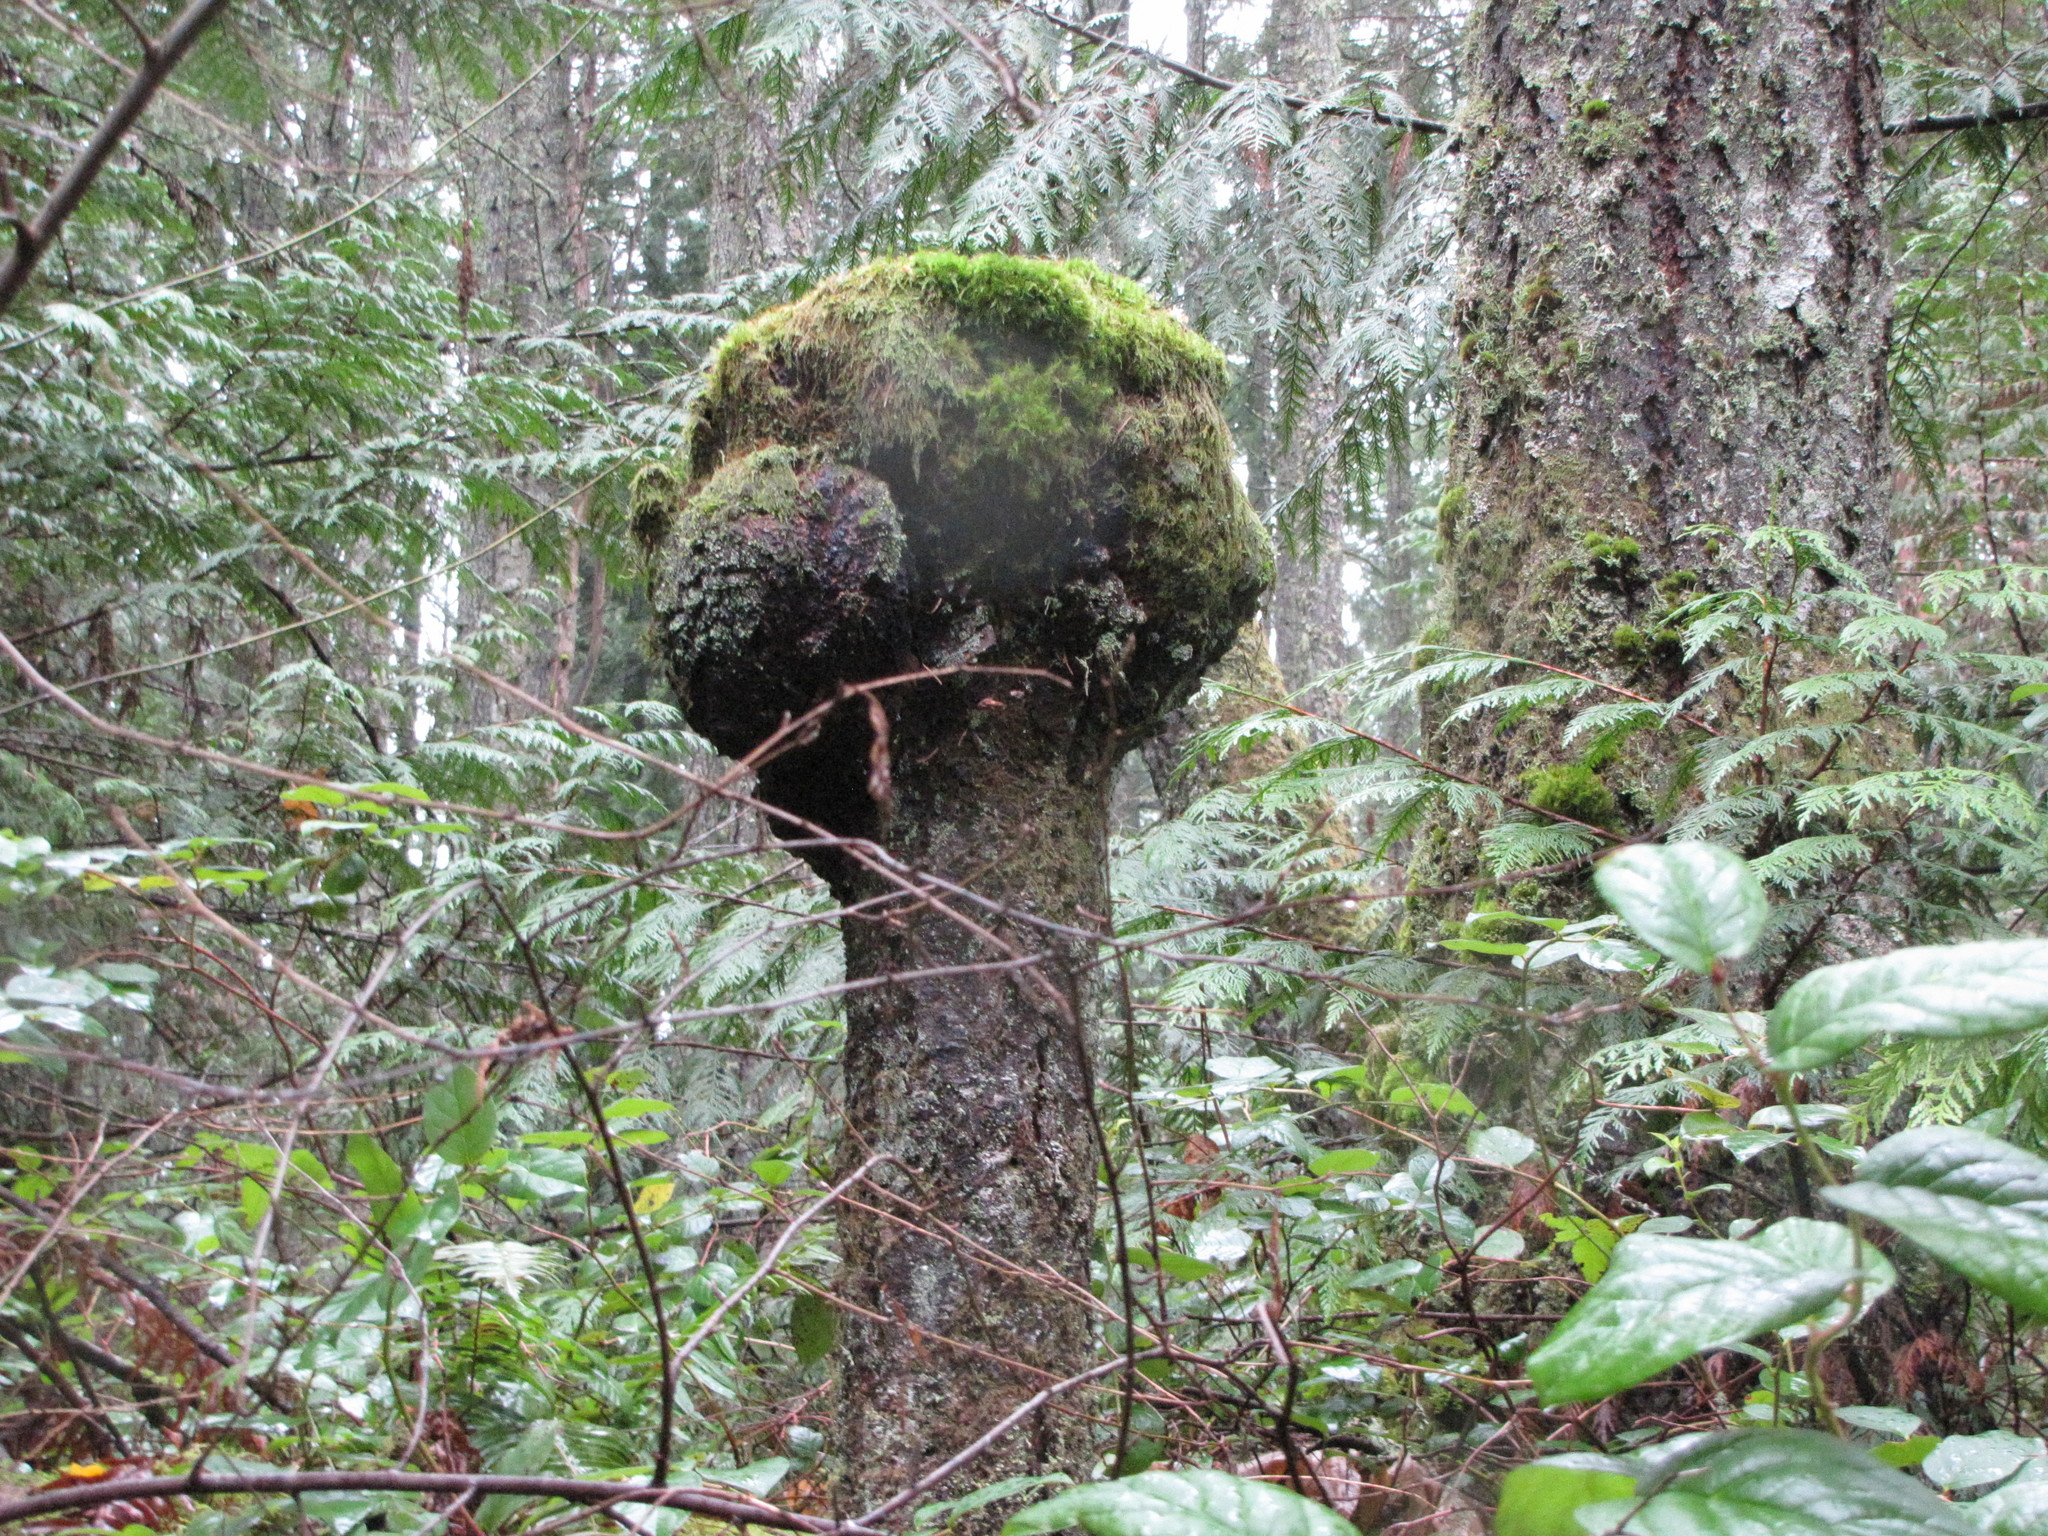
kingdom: Bacteria
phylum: Proteobacteria
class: Alphaproteobacteria
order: Rhizobiales
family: Rhizobiaceae
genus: Rhizobium
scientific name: Rhizobium Agrobacterium radiobacter
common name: Bacterial crown gall
